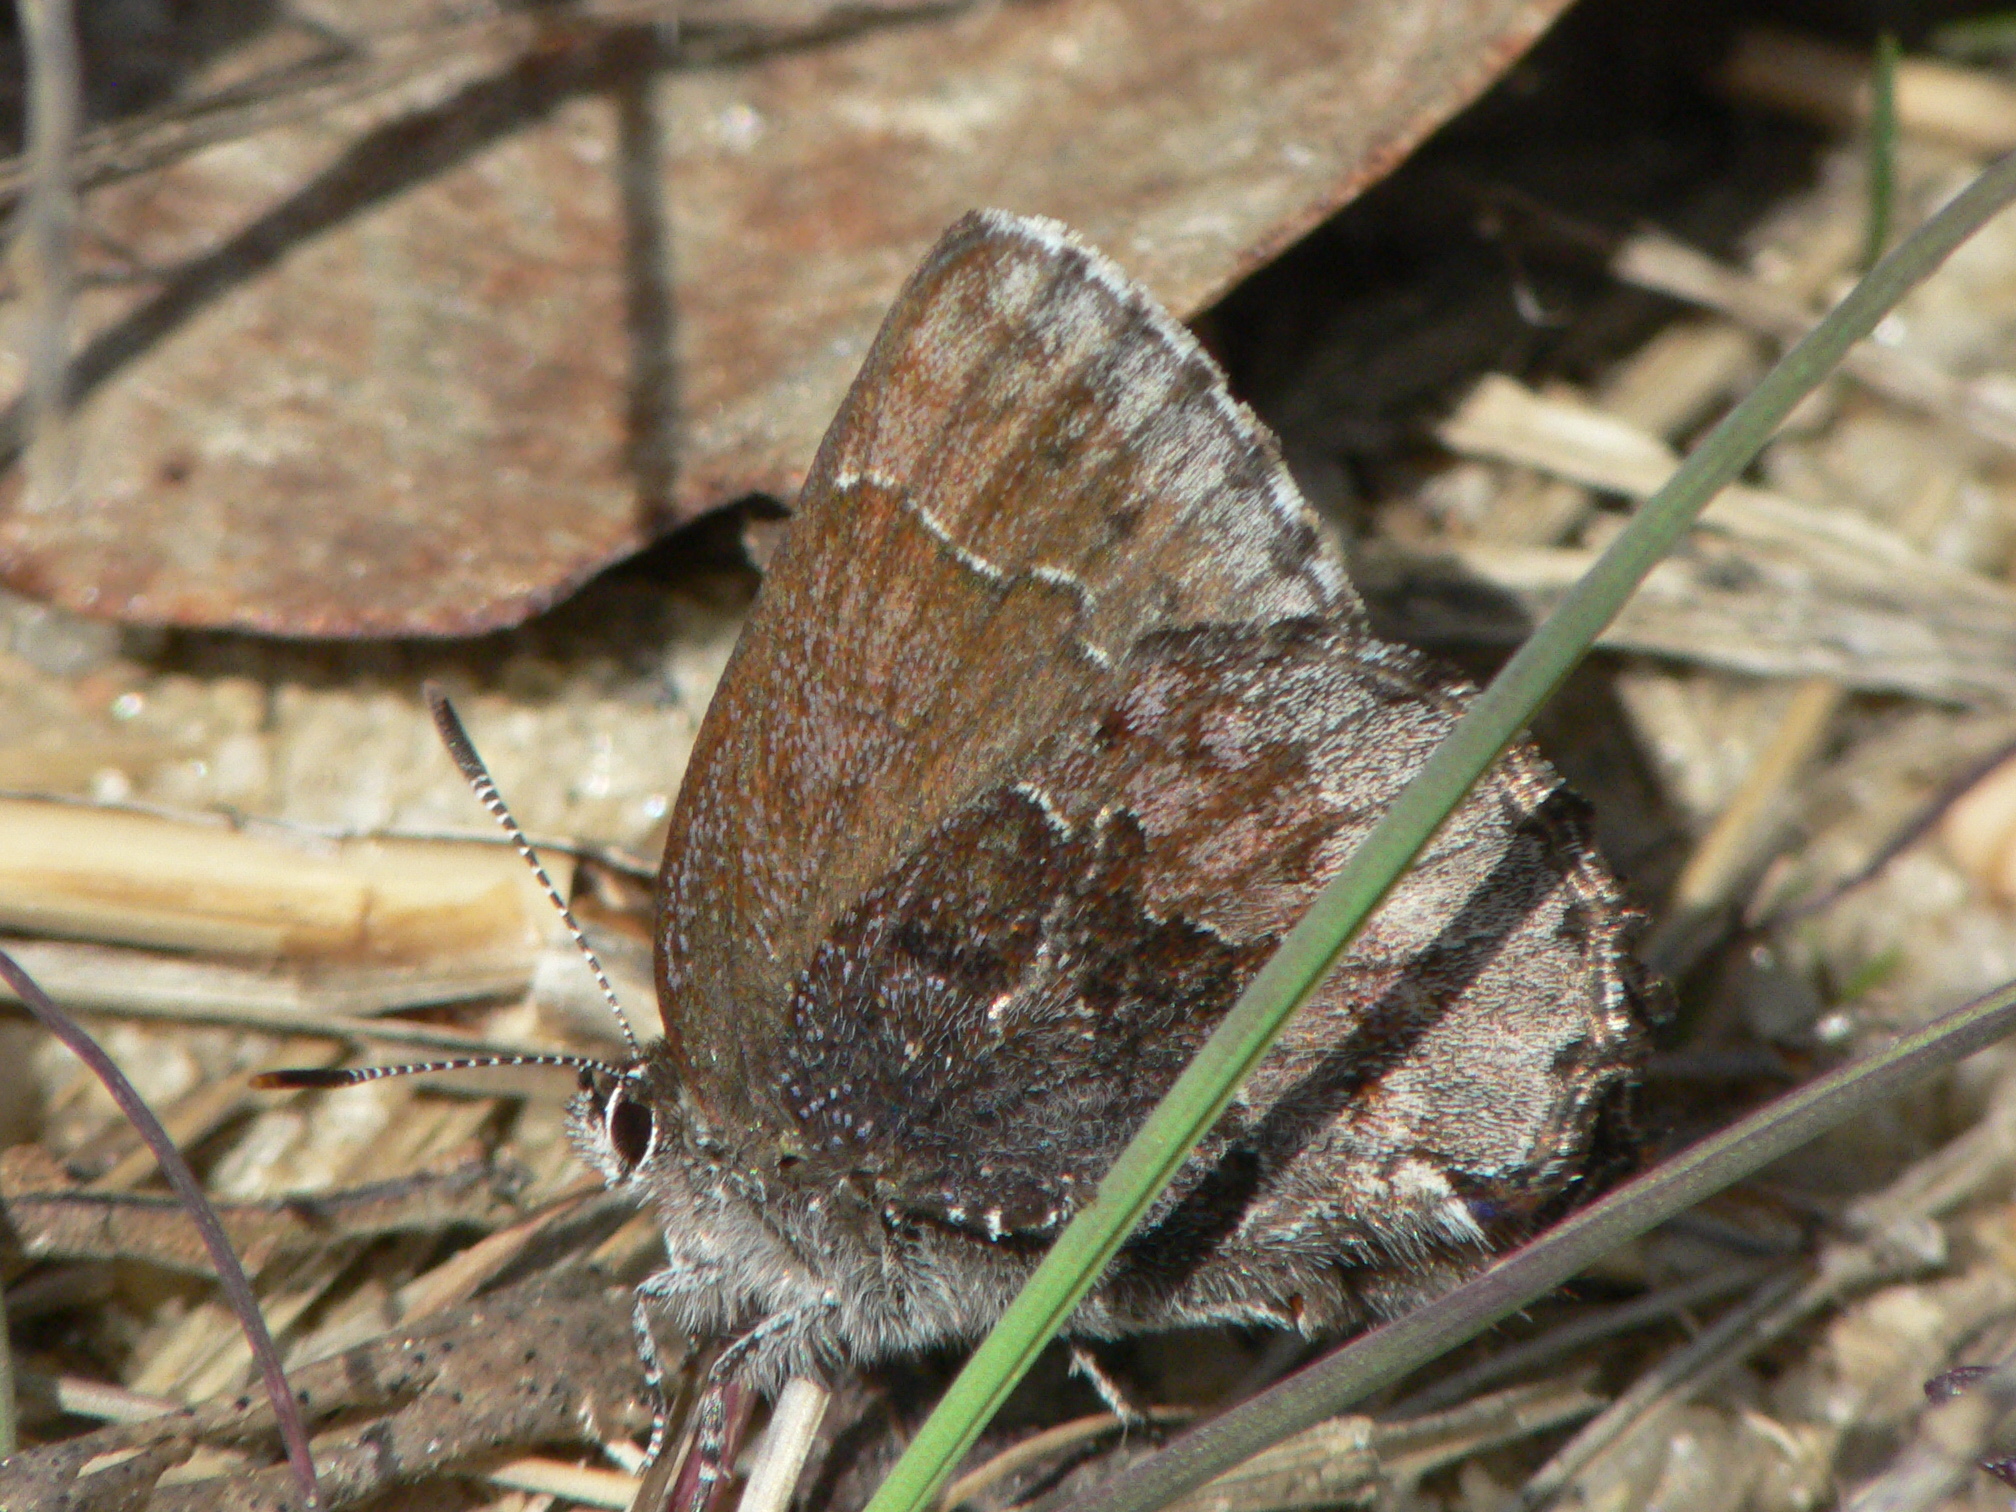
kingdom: Animalia
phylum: Arthropoda
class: Insecta
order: Lepidoptera
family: Lycaenidae
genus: Callophrys
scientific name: Callophrys polios
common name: Hoary elfin
